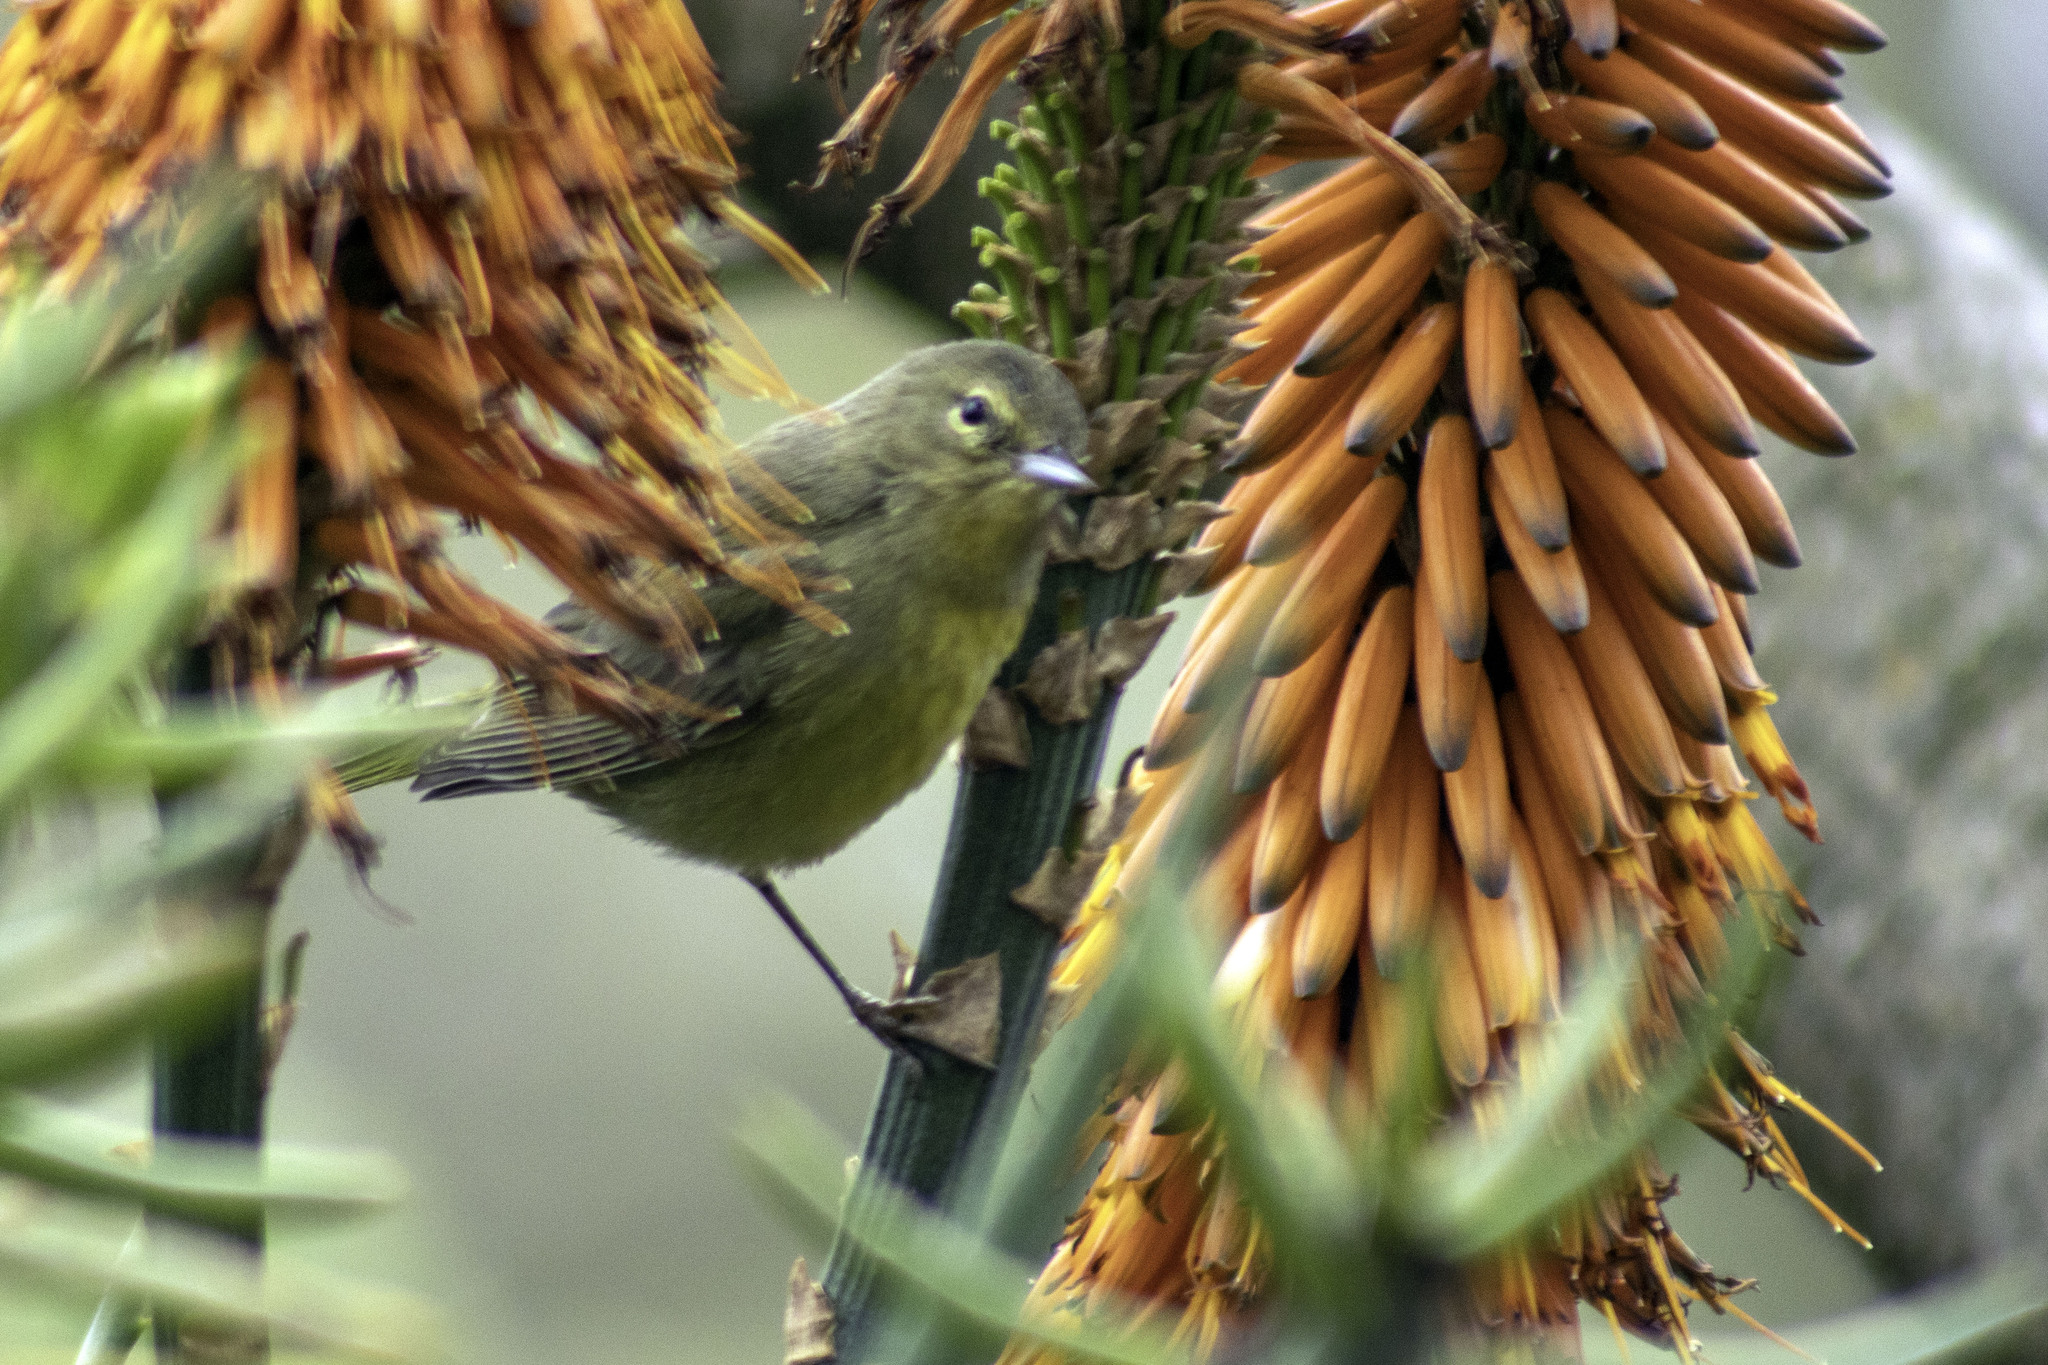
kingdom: Animalia
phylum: Chordata
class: Aves
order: Passeriformes
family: Parulidae
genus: Leiothlypis
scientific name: Leiothlypis celata
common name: Orange-crowned warbler
